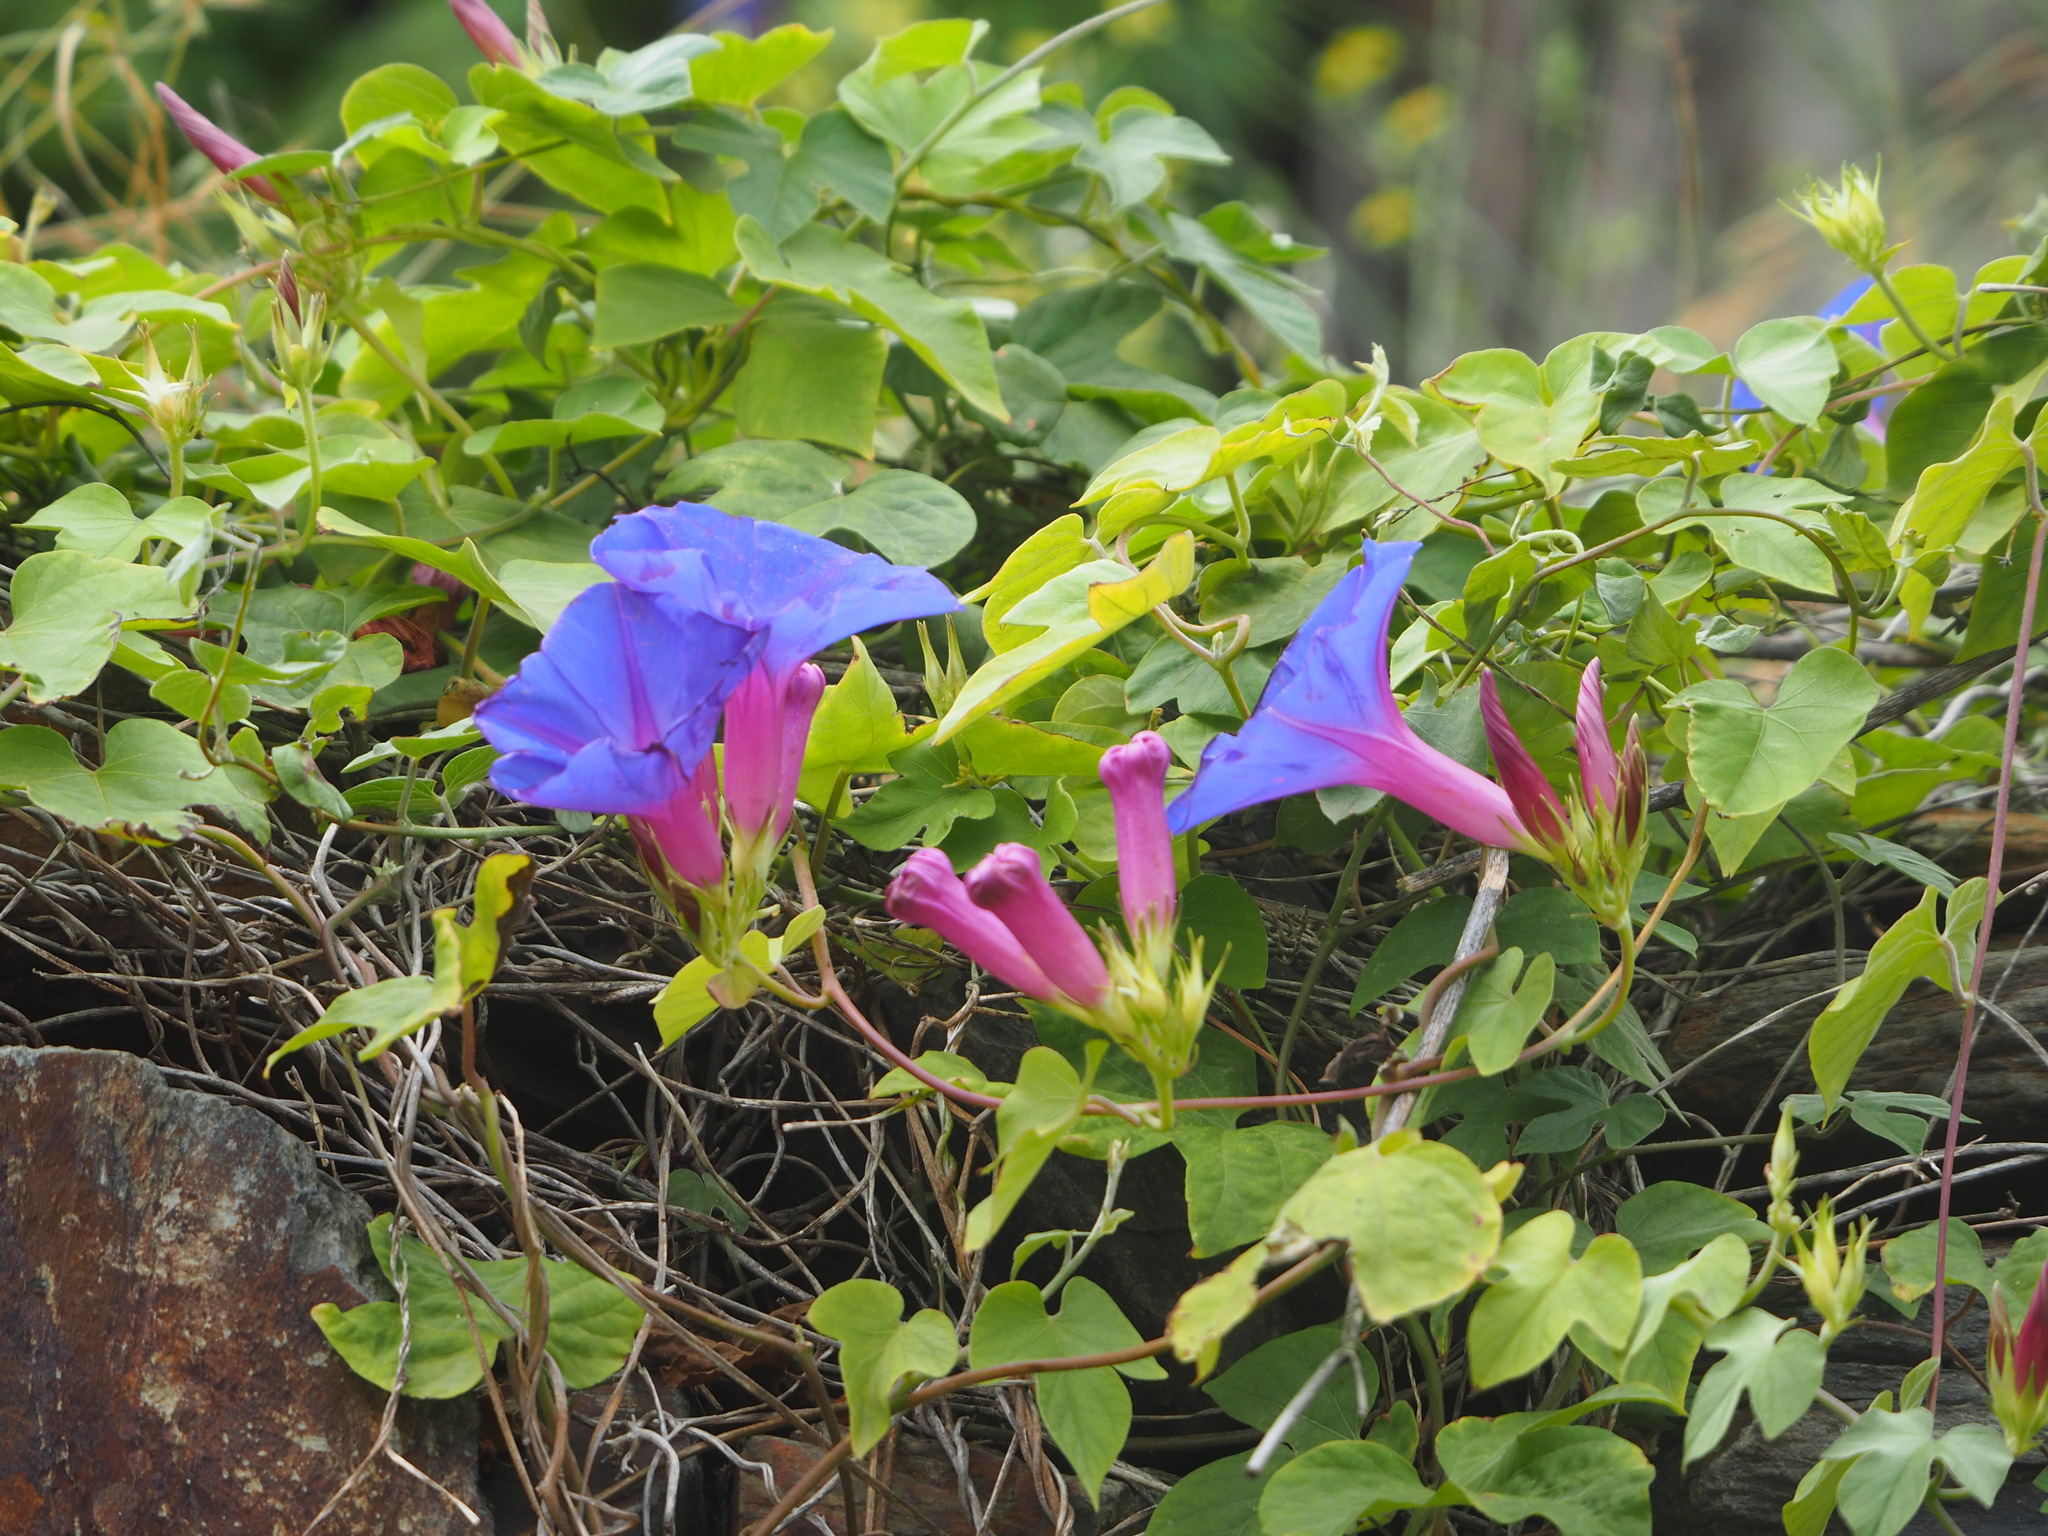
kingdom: Plantae
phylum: Tracheophyta
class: Magnoliopsida
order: Solanales
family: Convolvulaceae
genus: Ipomoea
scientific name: Ipomoea indica
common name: Blue dawnflower
